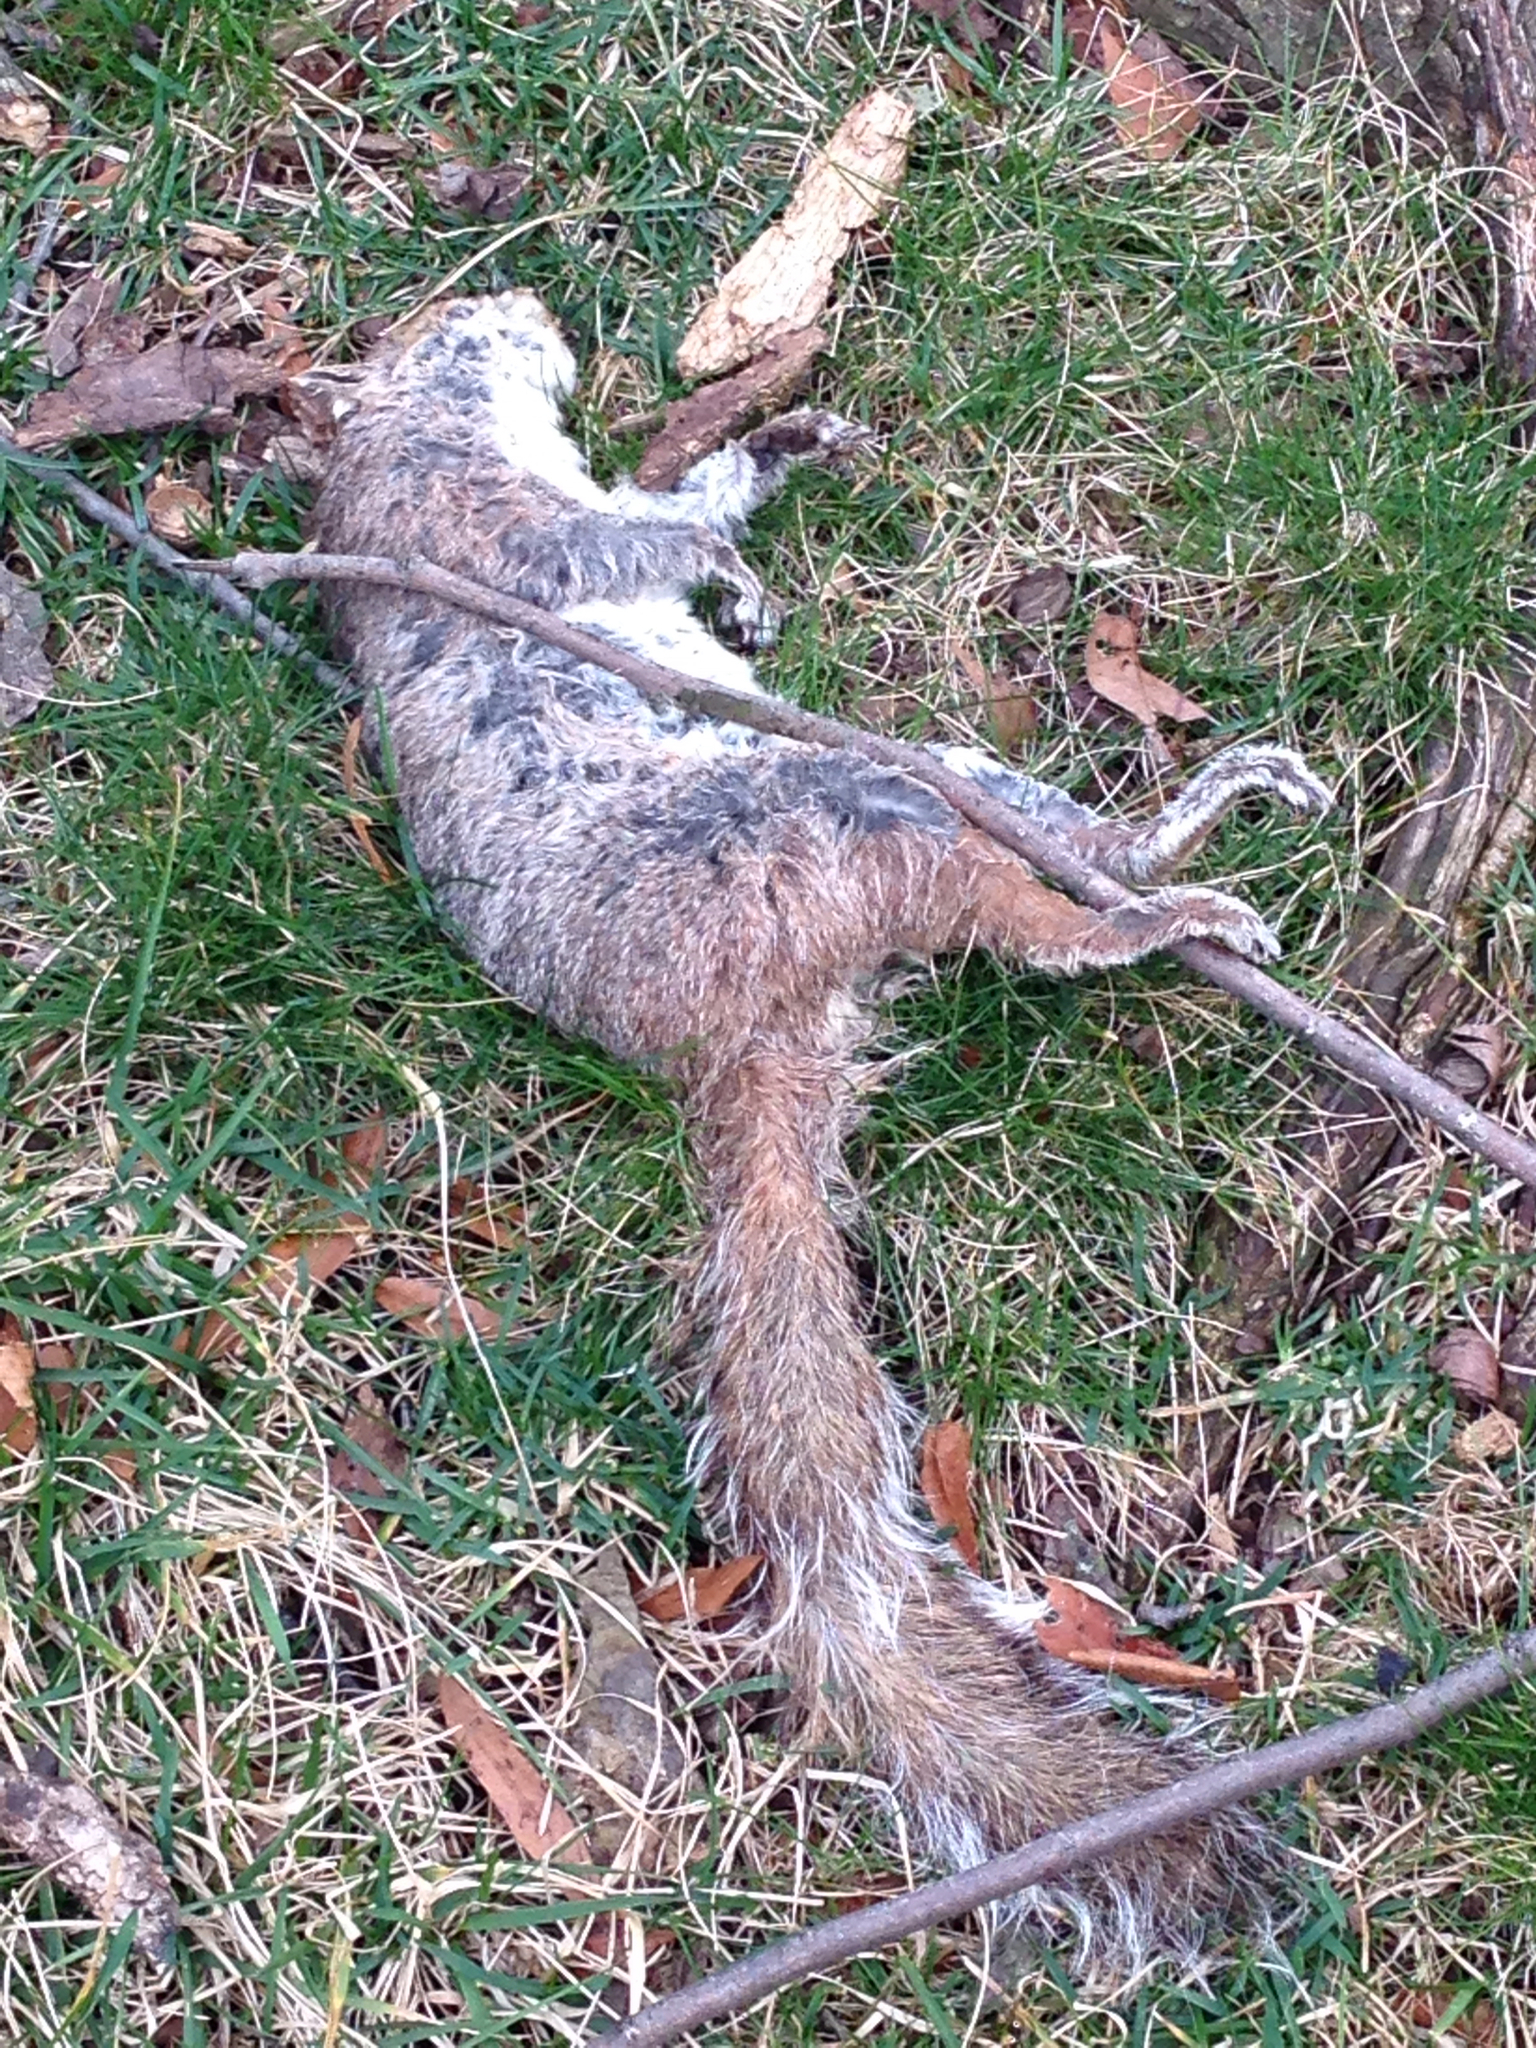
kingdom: Animalia
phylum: Chordata
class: Mammalia
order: Rodentia
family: Sciuridae
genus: Sciurus
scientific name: Sciurus carolinensis
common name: Eastern gray squirrel
